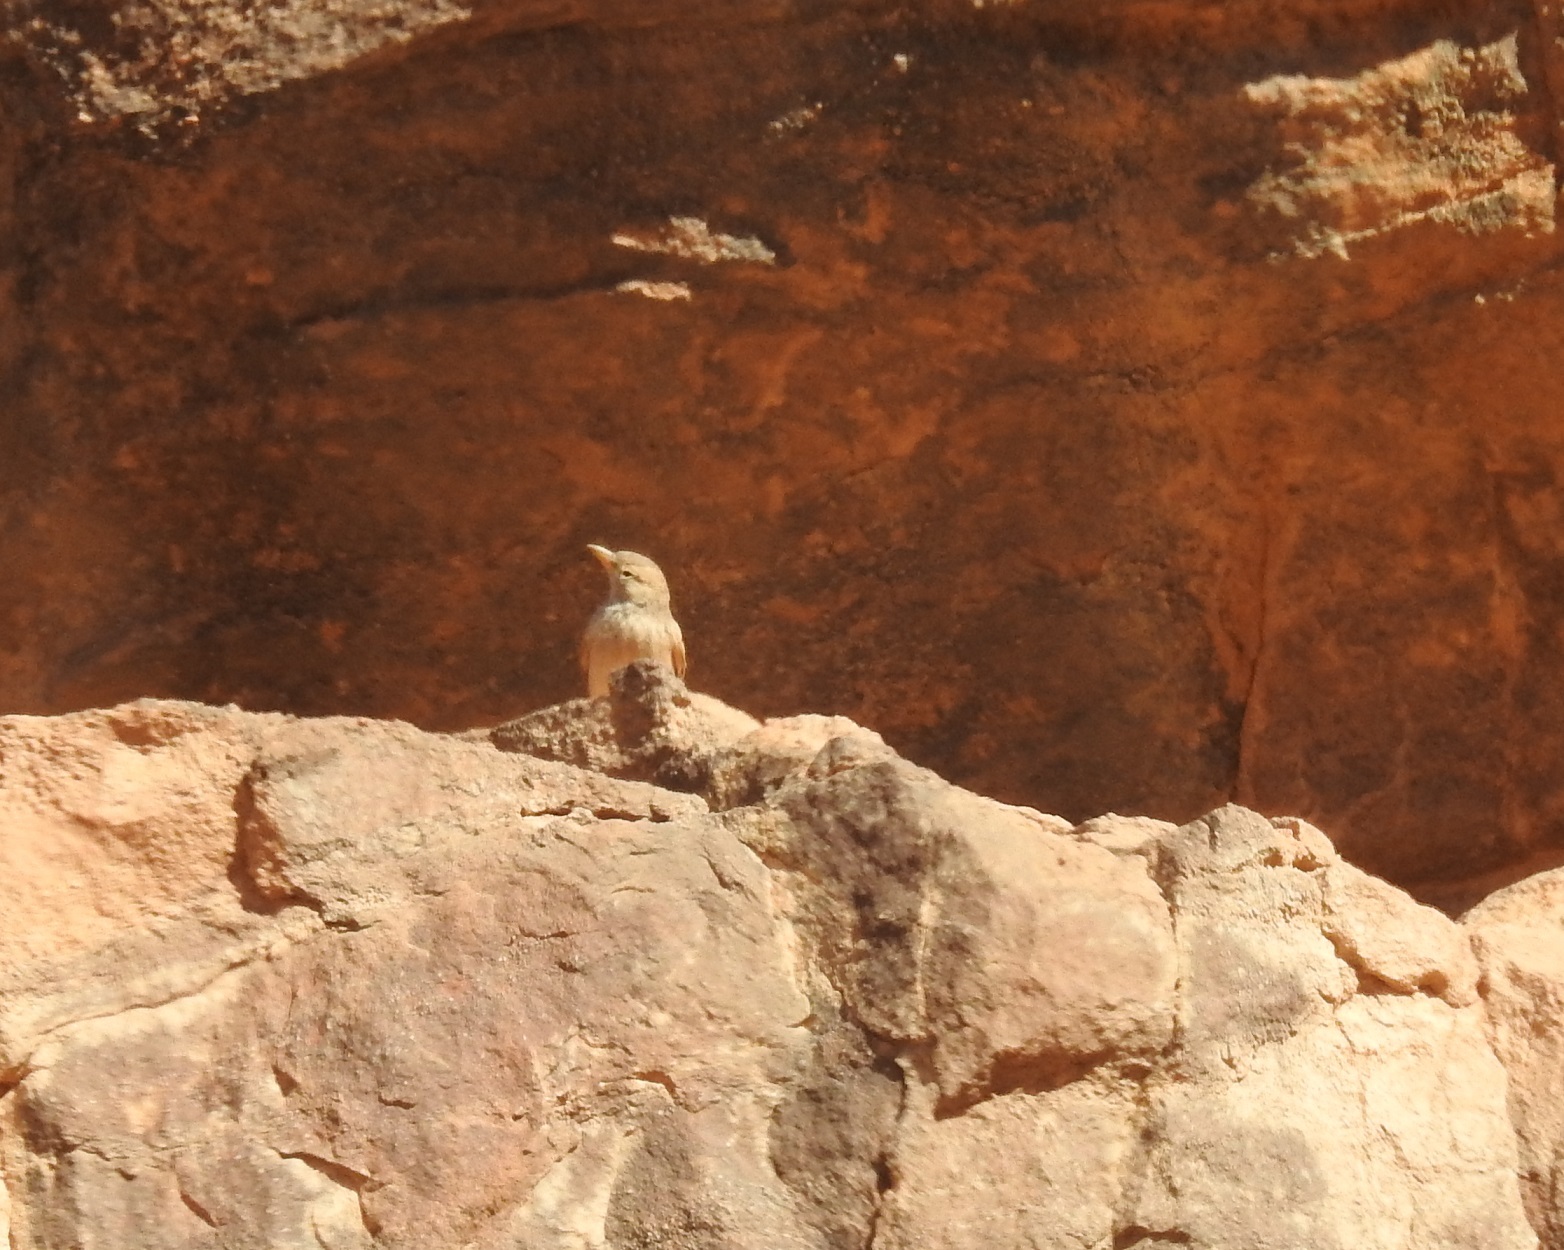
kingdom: Animalia
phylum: Chordata
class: Aves
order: Passeriformes
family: Alaudidae
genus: Ammomanes
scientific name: Ammomanes deserti
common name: Desert lark
